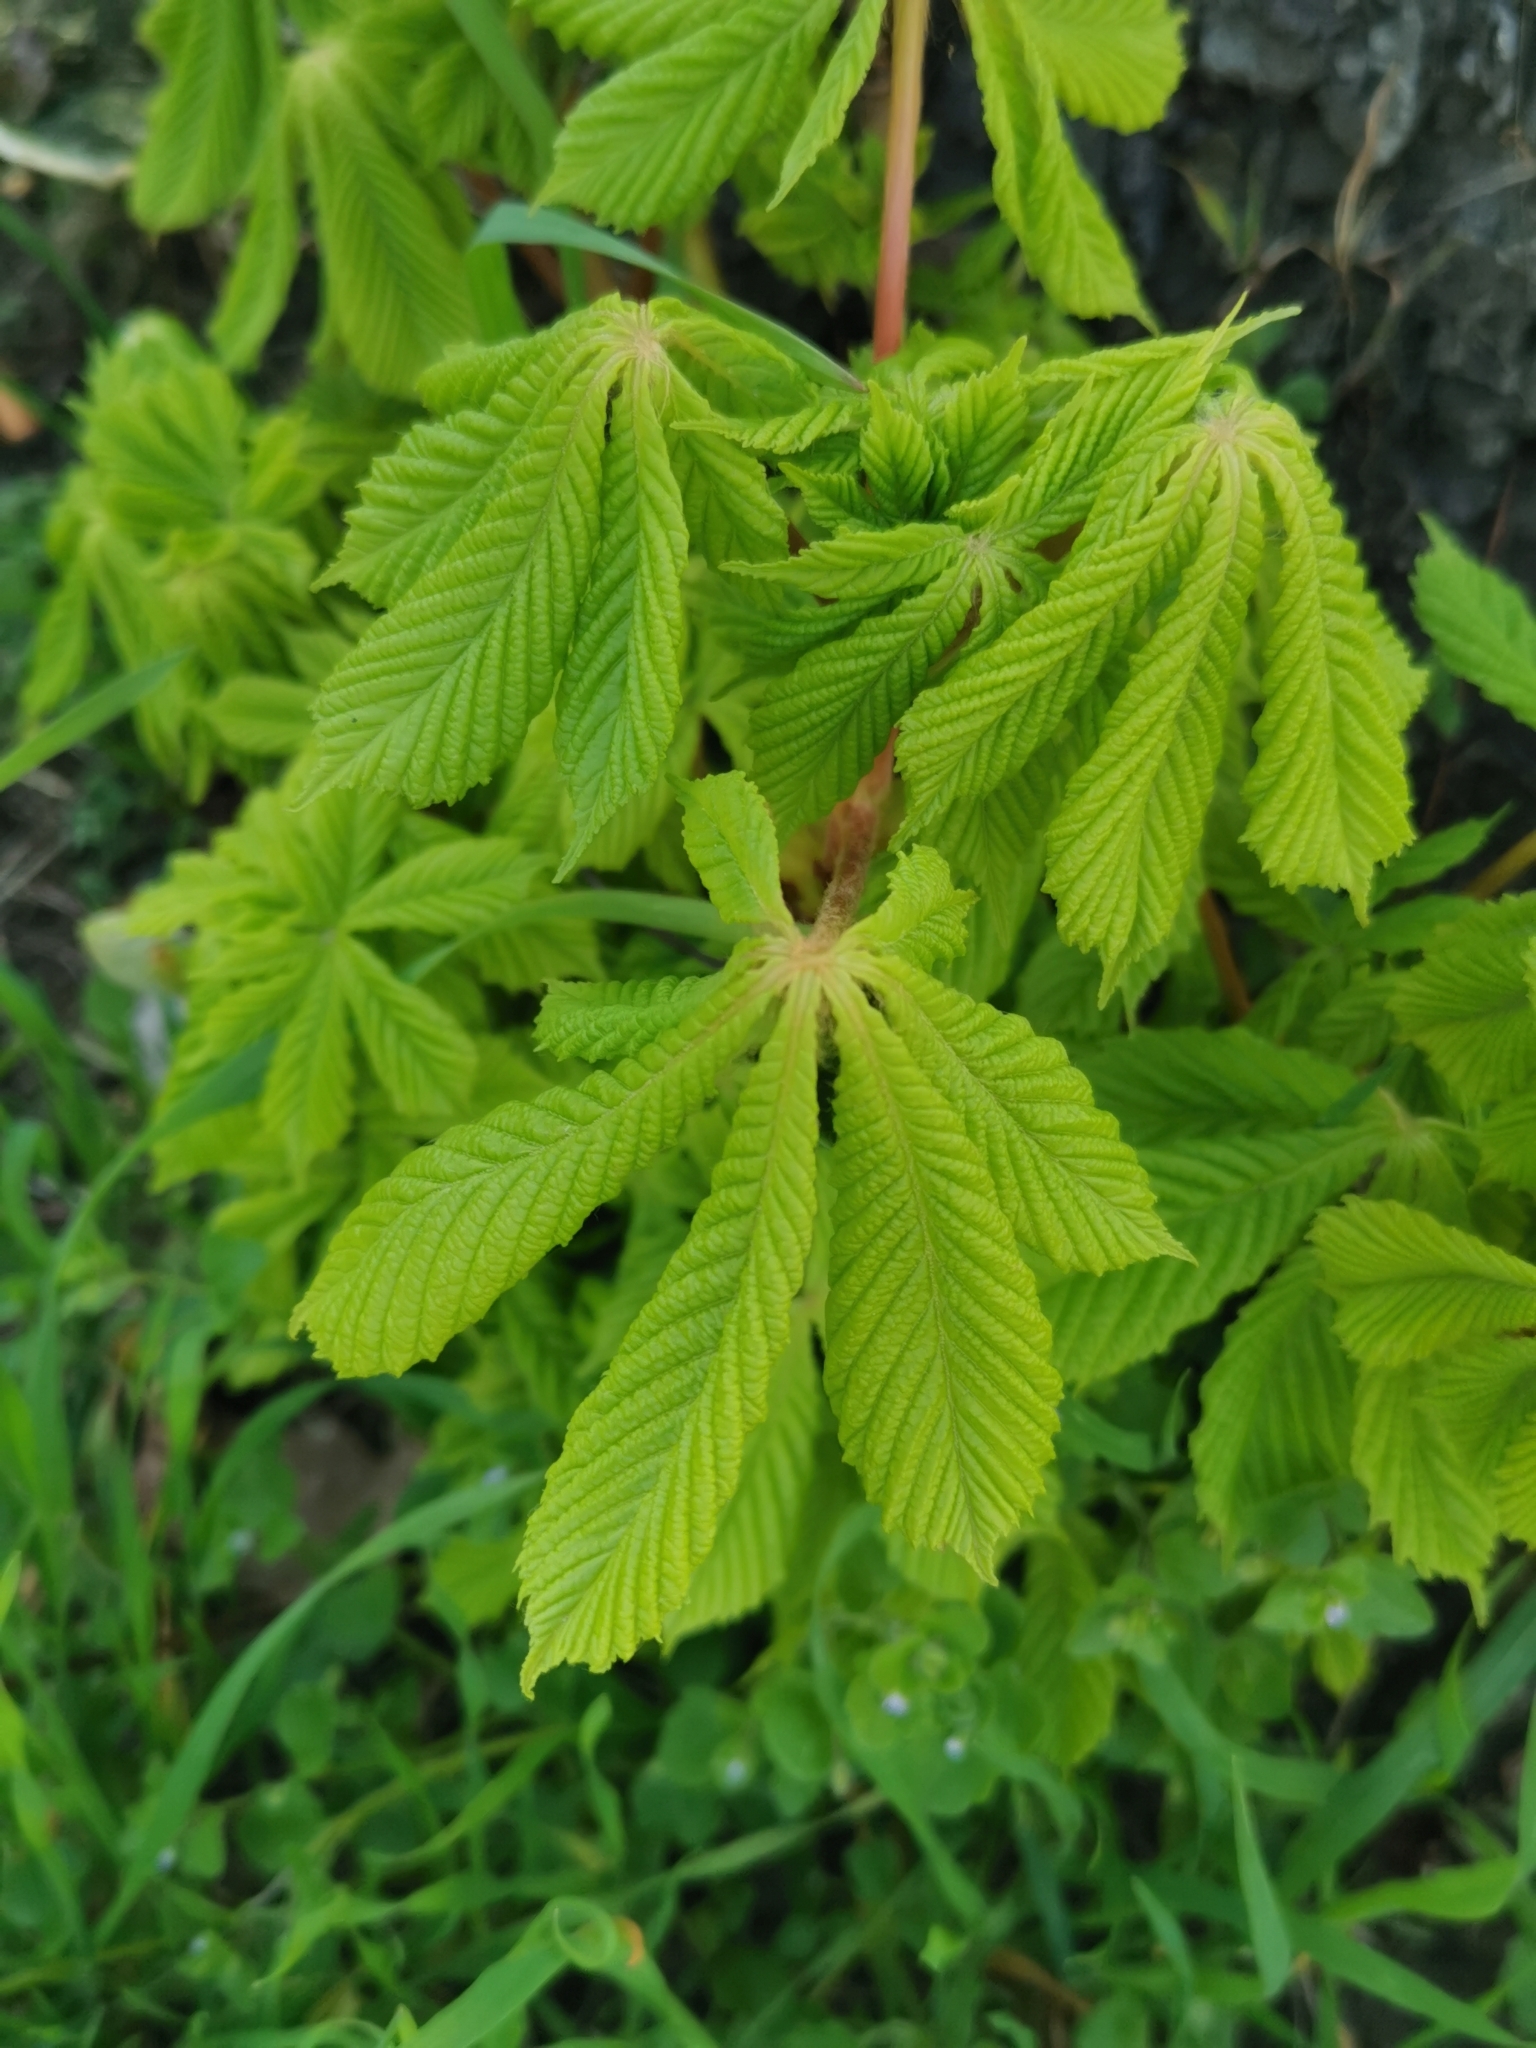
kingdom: Plantae
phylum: Tracheophyta
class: Magnoliopsida
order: Sapindales
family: Sapindaceae
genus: Aesculus
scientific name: Aesculus hippocastanum
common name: Horse-chestnut
